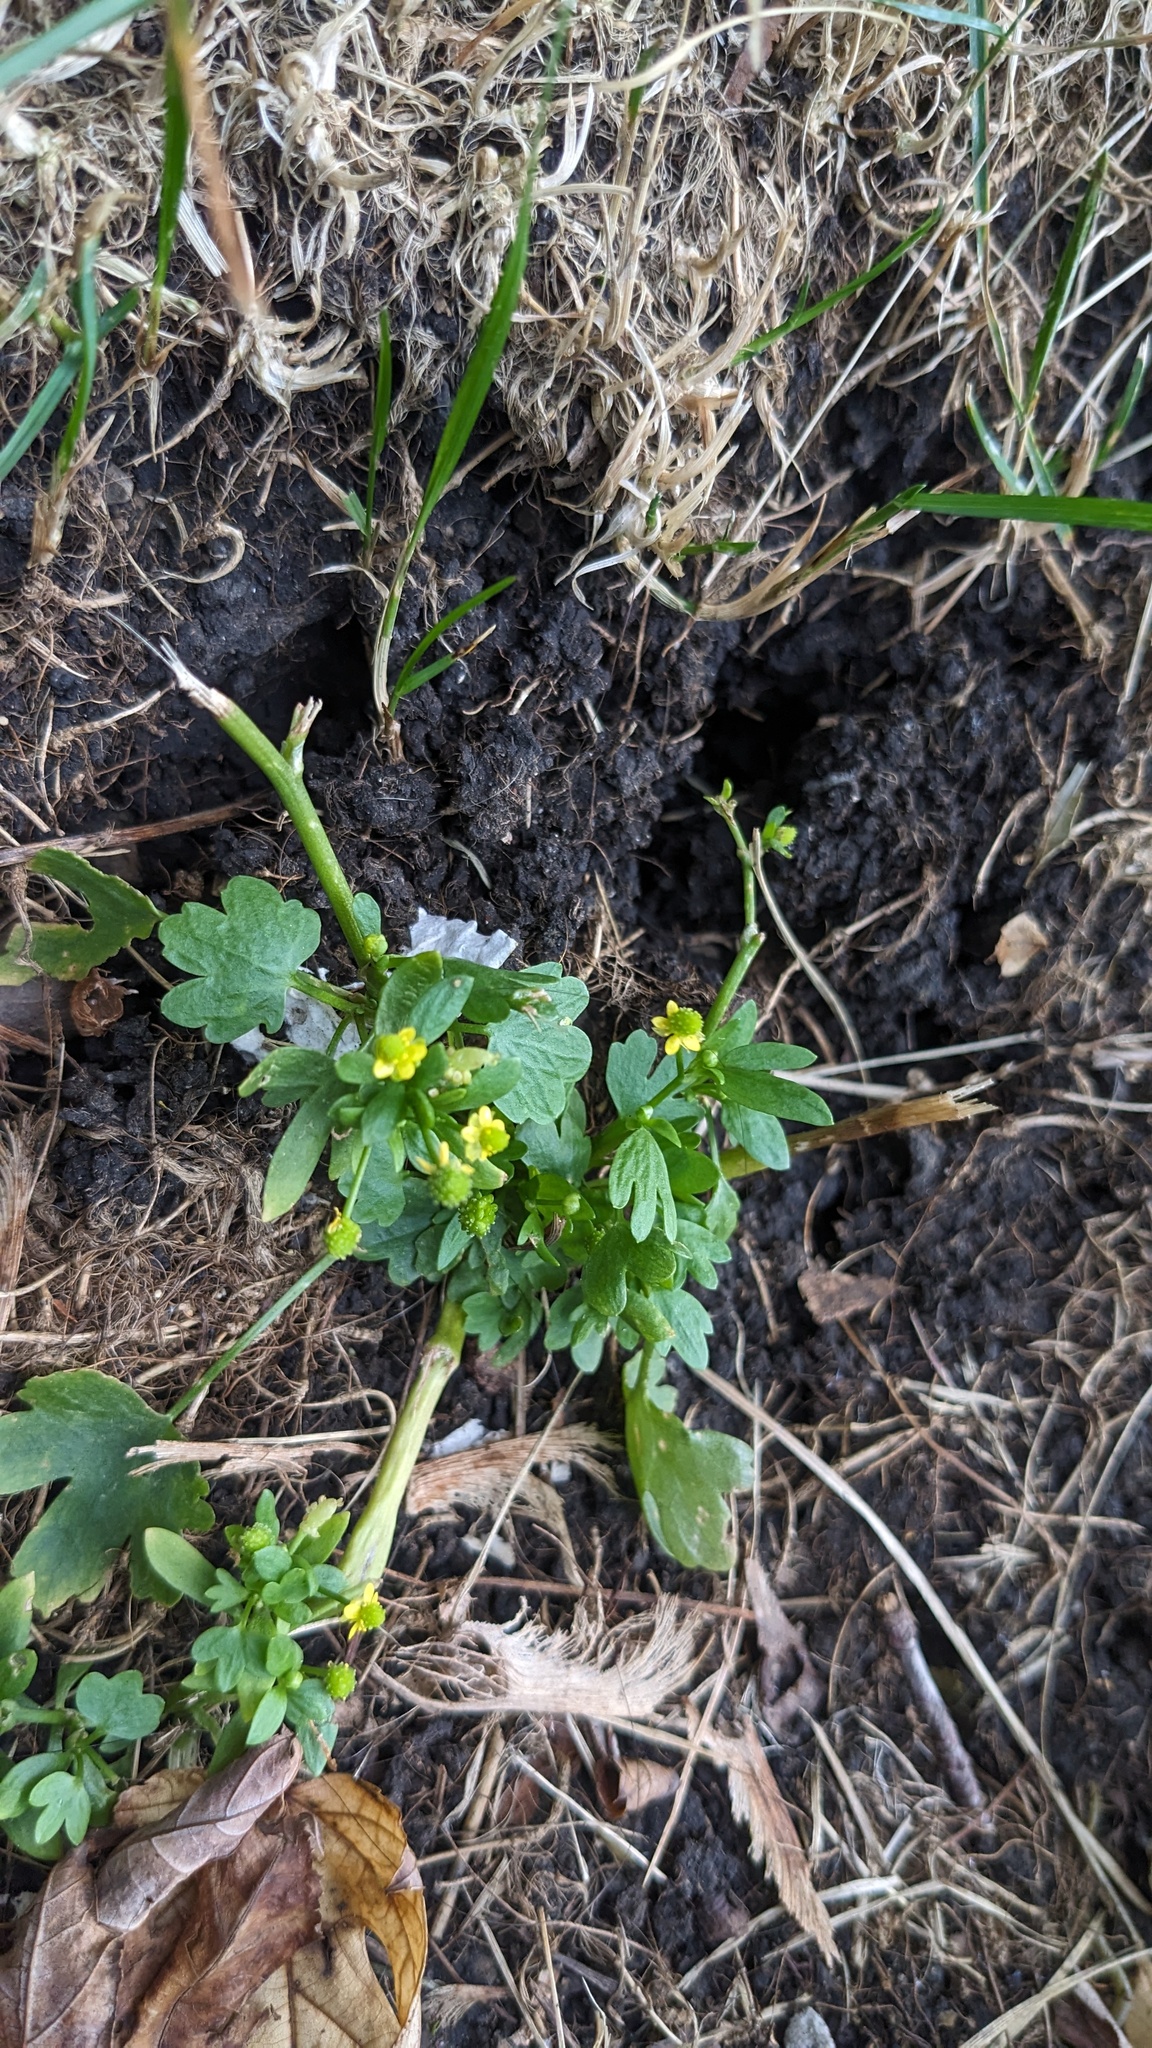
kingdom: Plantae
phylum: Tracheophyta
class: Magnoliopsida
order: Ranunculales
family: Ranunculaceae
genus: Ranunculus
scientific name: Ranunculus sceleratus
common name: Celery-leaved buttercup
